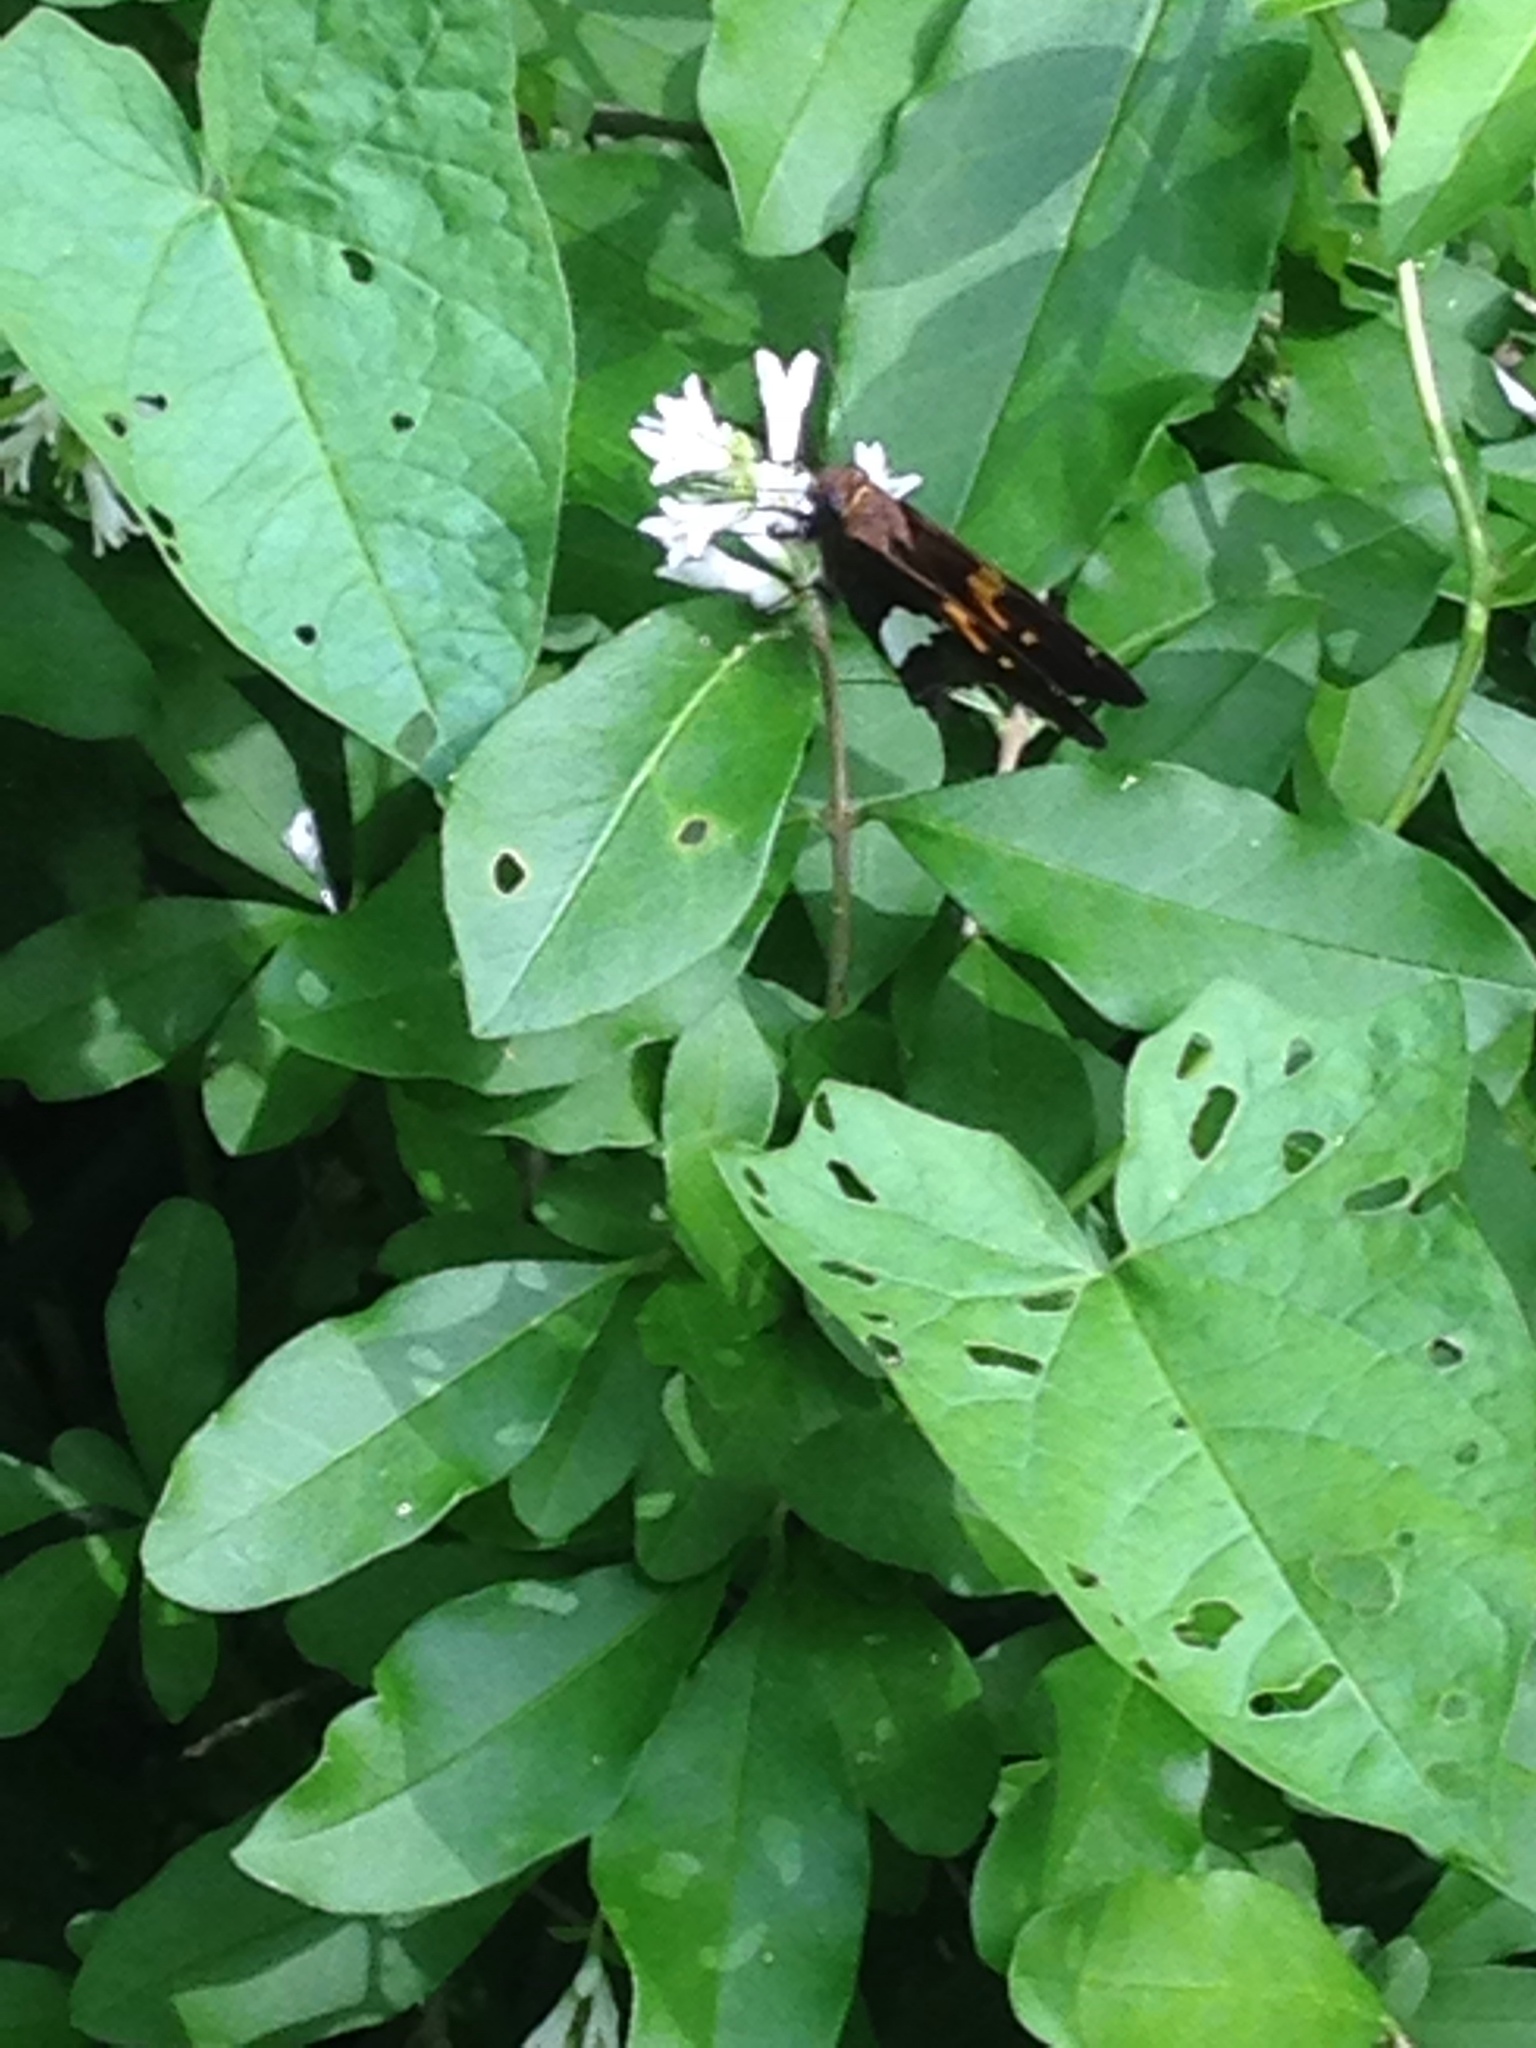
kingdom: Animalia
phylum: Arthropoda
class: Insecta
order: Lepidoptera
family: Hesperiidae
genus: Epargyreus
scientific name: Epargyreus clarus
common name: Silver-spotted skipper
